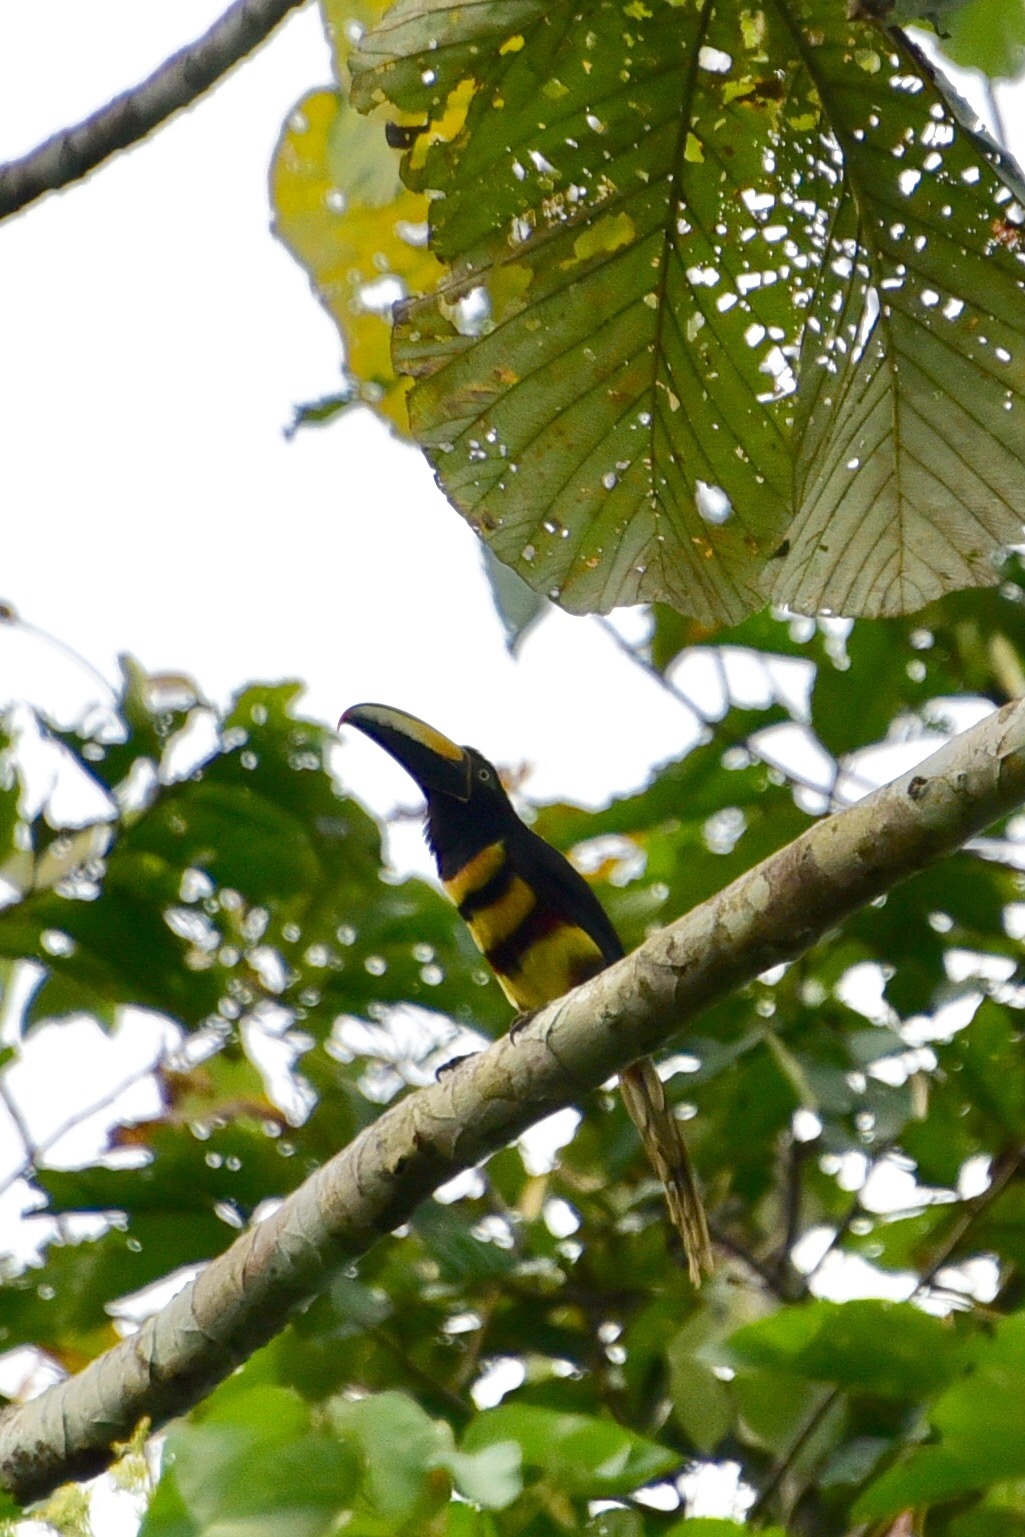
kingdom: Animalia
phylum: Chordata
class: Aves
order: Piciformes
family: Ramphastidae
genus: Pteroglossus
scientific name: Pteroglossus pluricinctus
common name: Many-banded aracari
